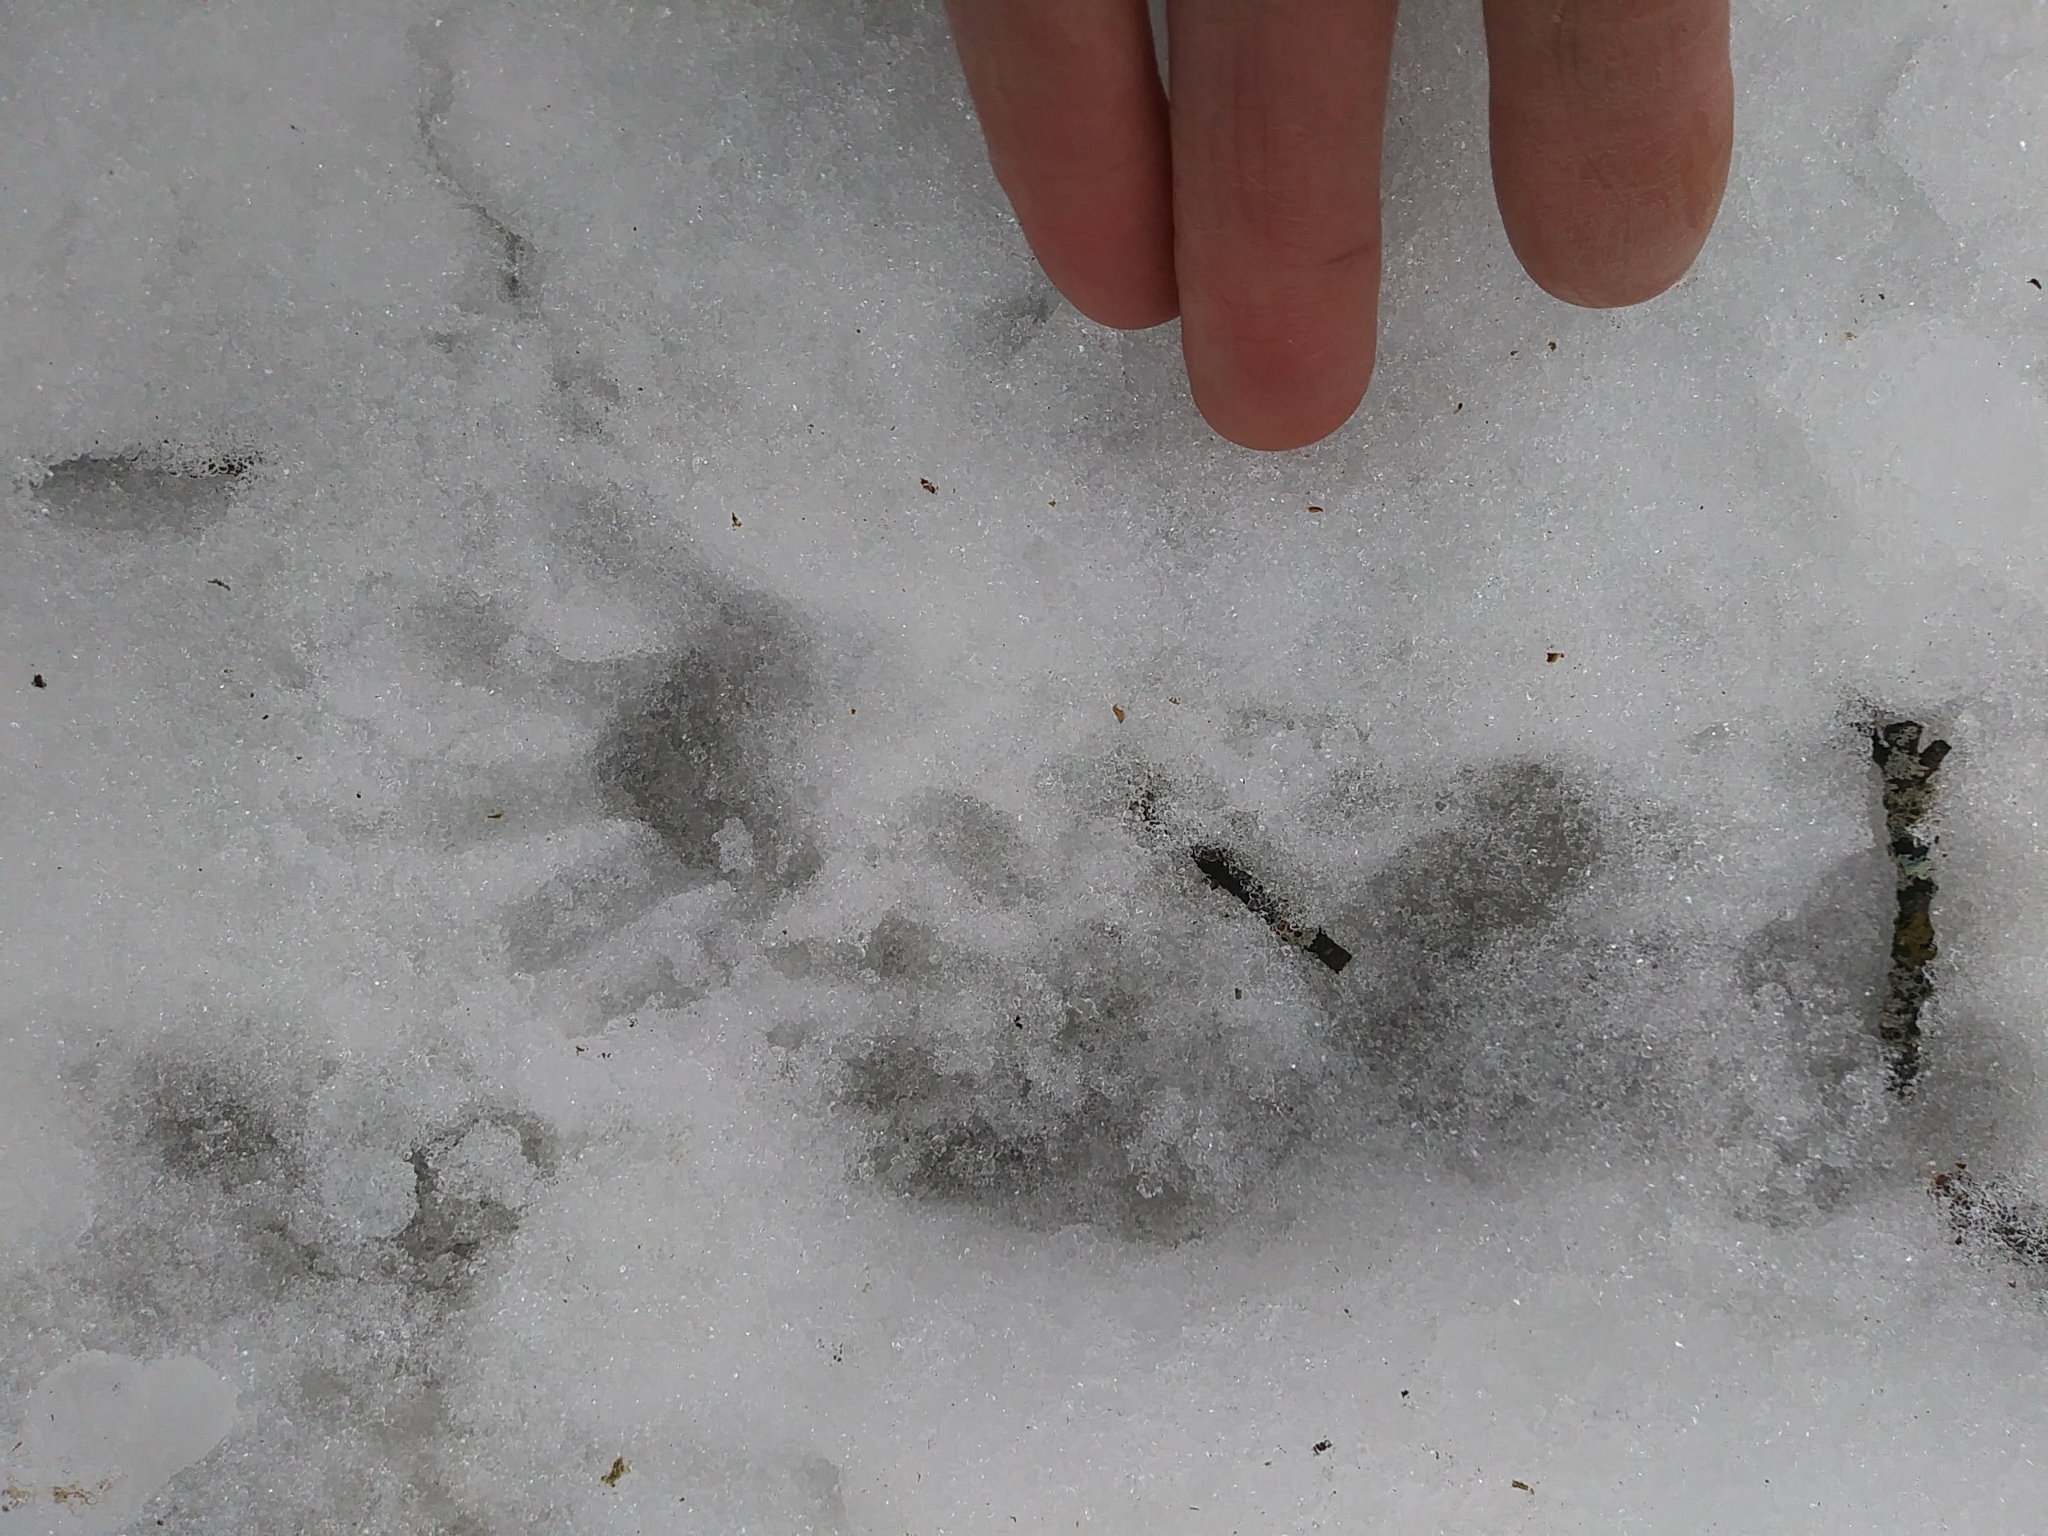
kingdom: Animalia
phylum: Chordata
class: Mammalia
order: Carnivora
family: Procyonidae
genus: Procyon
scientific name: Procyon lotor
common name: Raccoon
